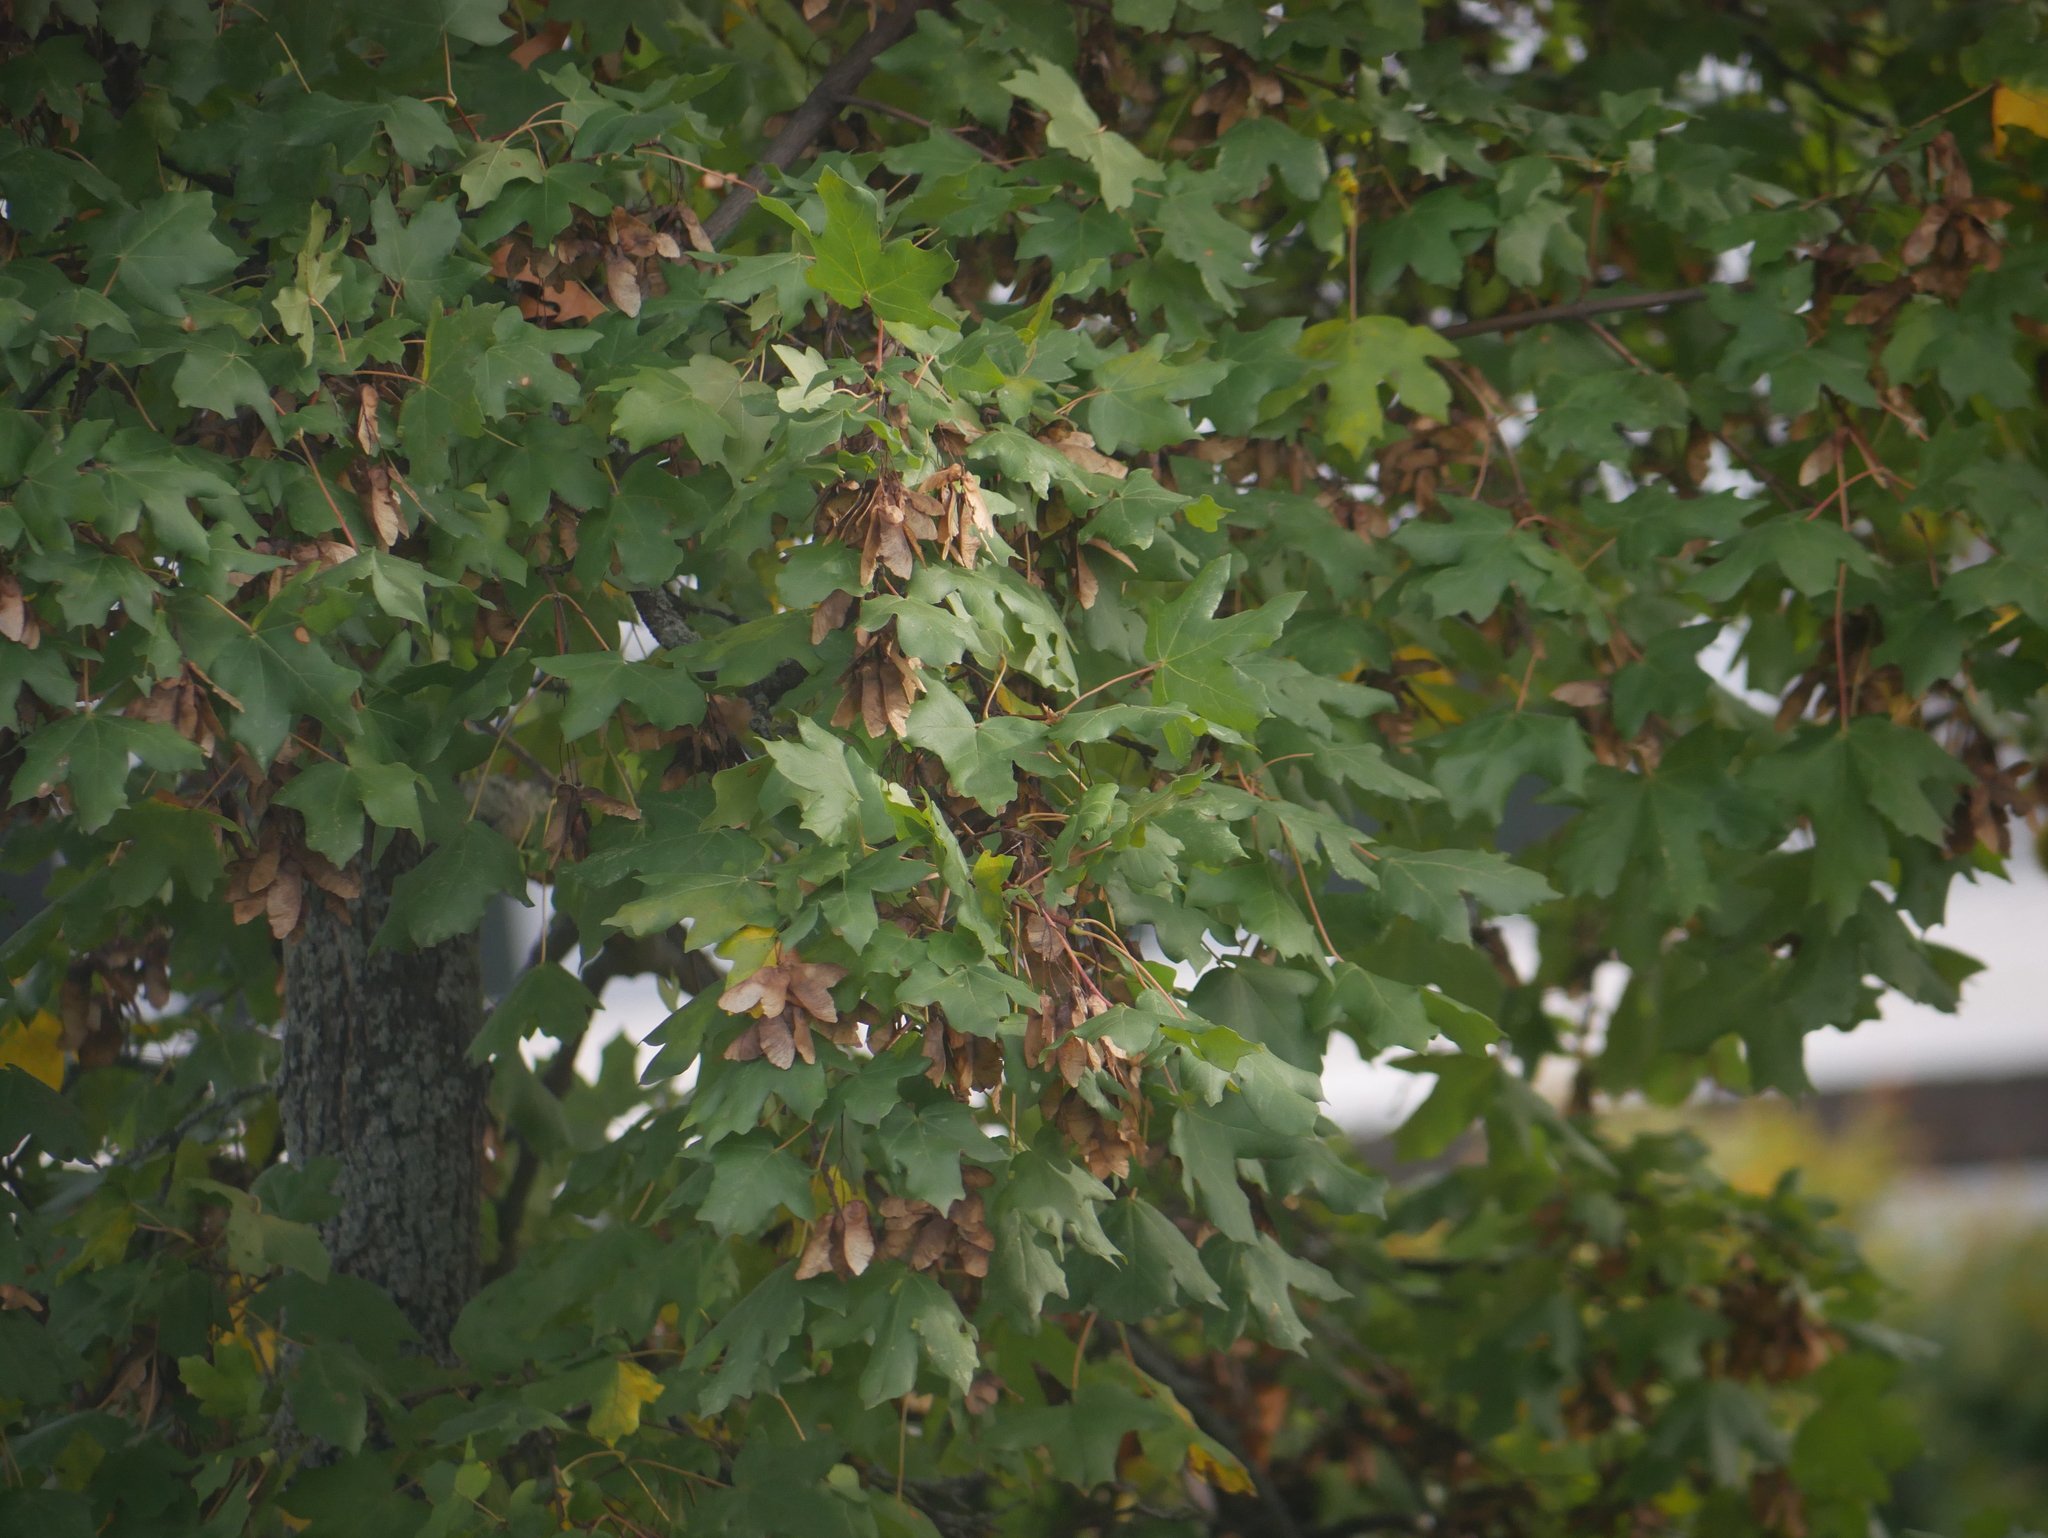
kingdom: Plantae
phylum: Tracheophyta
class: Magnoliopsida
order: Sapindales
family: Sapindaceae
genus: Acer
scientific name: Acer campestre
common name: Field maple
